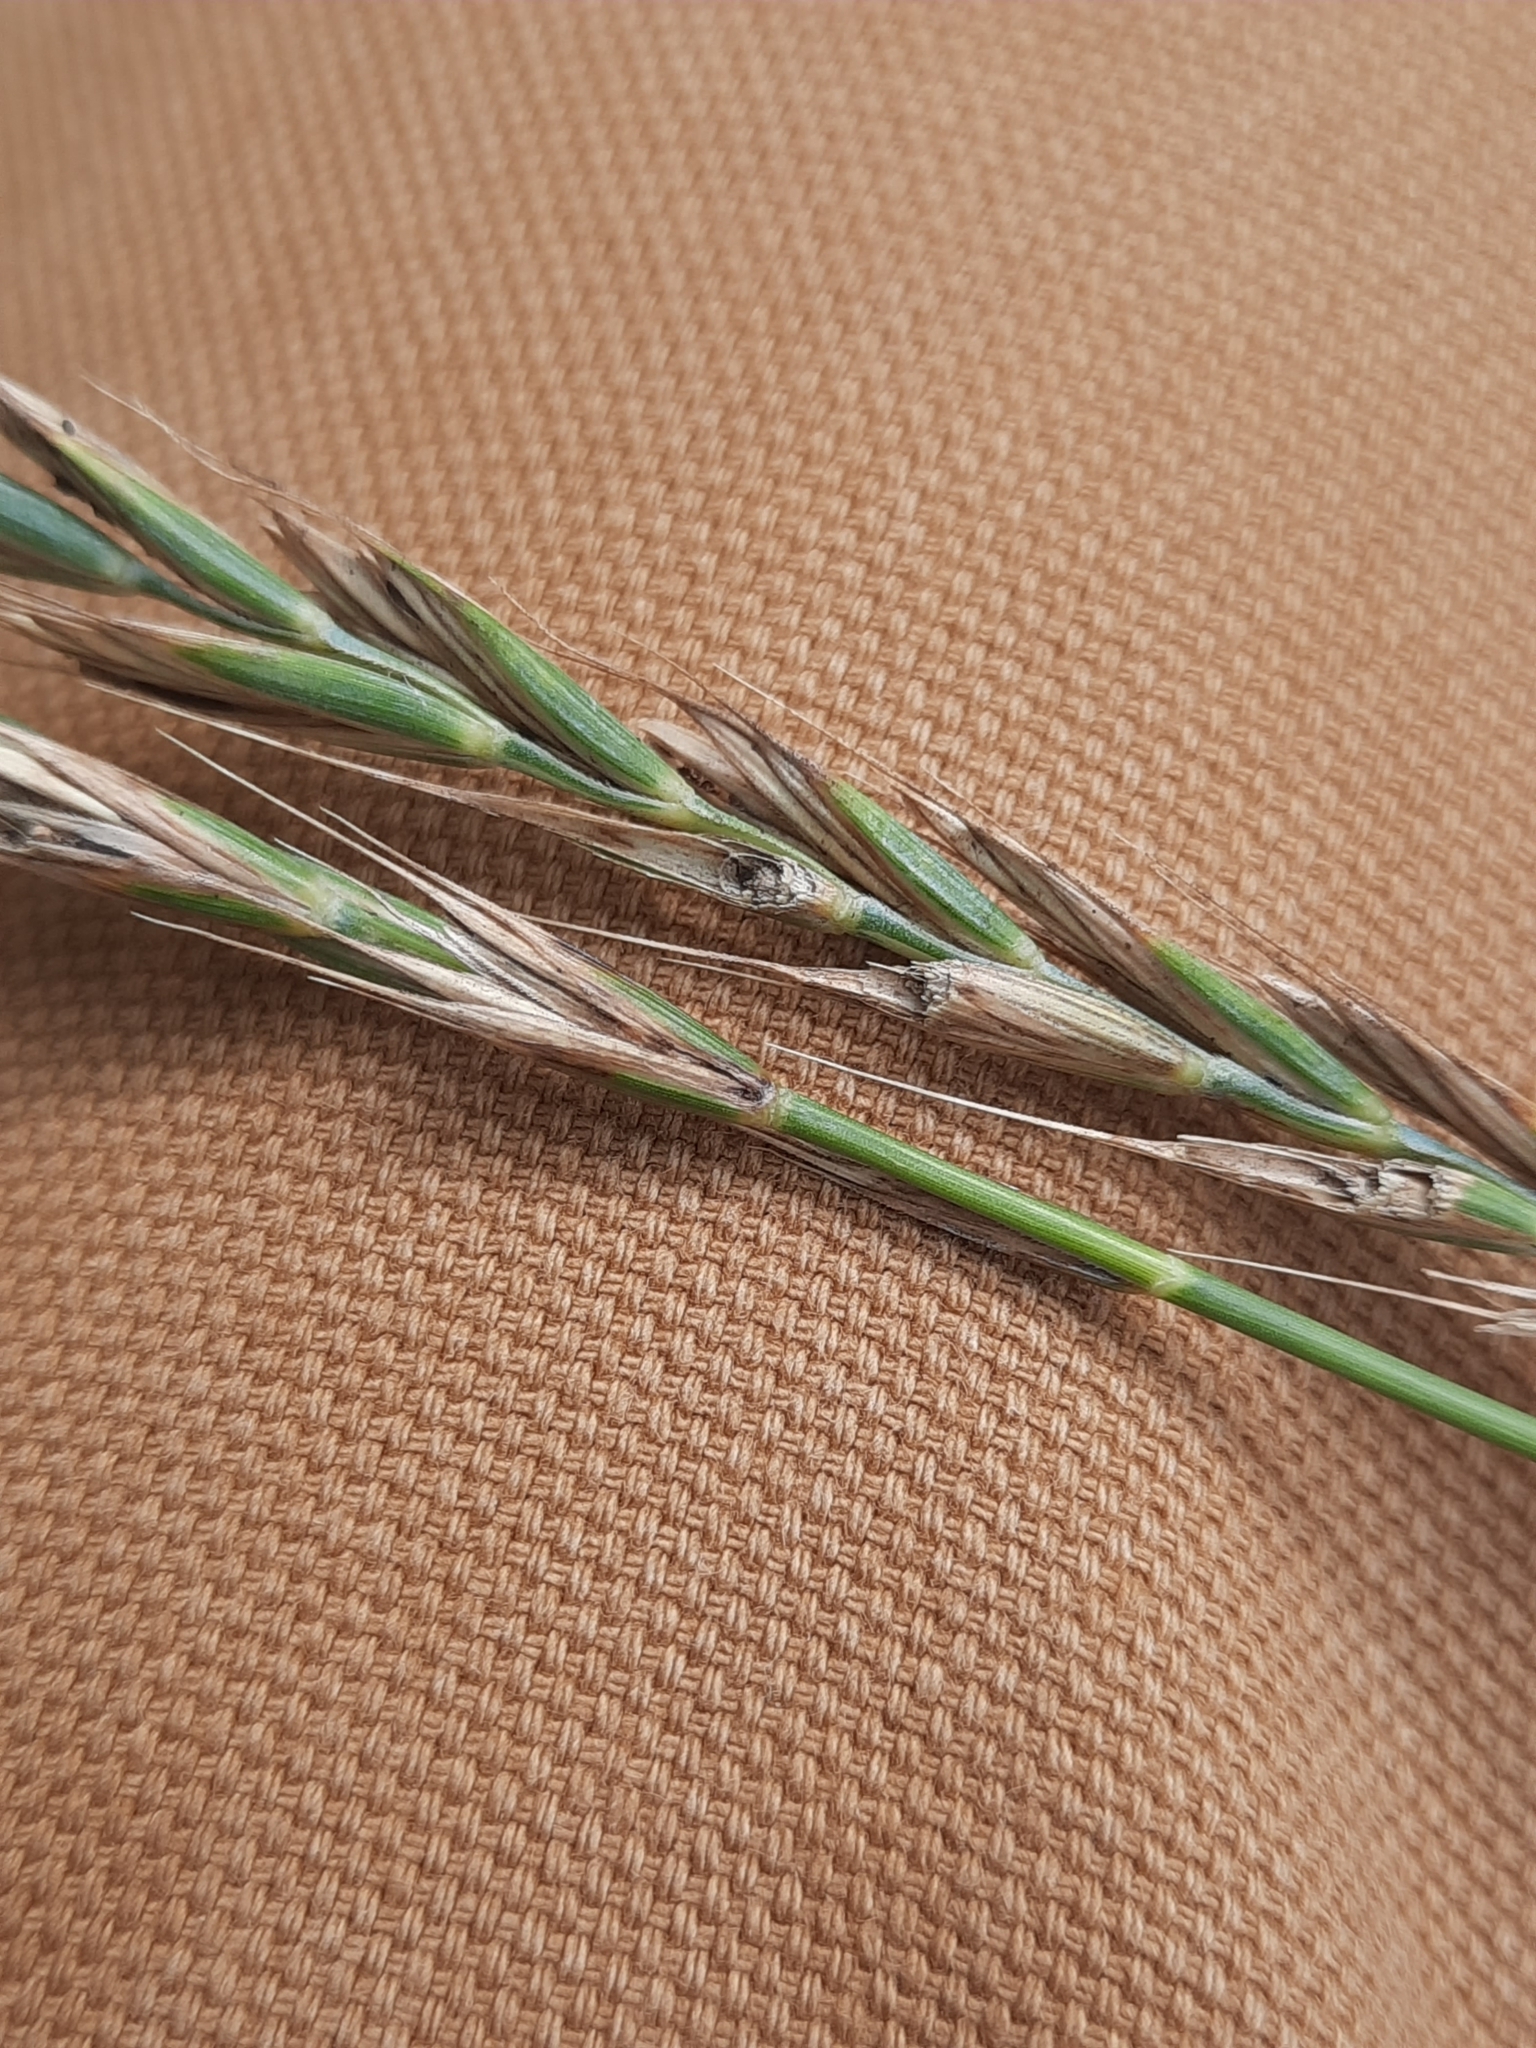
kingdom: Plantae
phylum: Tracheophyta
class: Liliopsida
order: Poales
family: Poaceae
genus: Elymus
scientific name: Elymus repens
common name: Quackgrass
